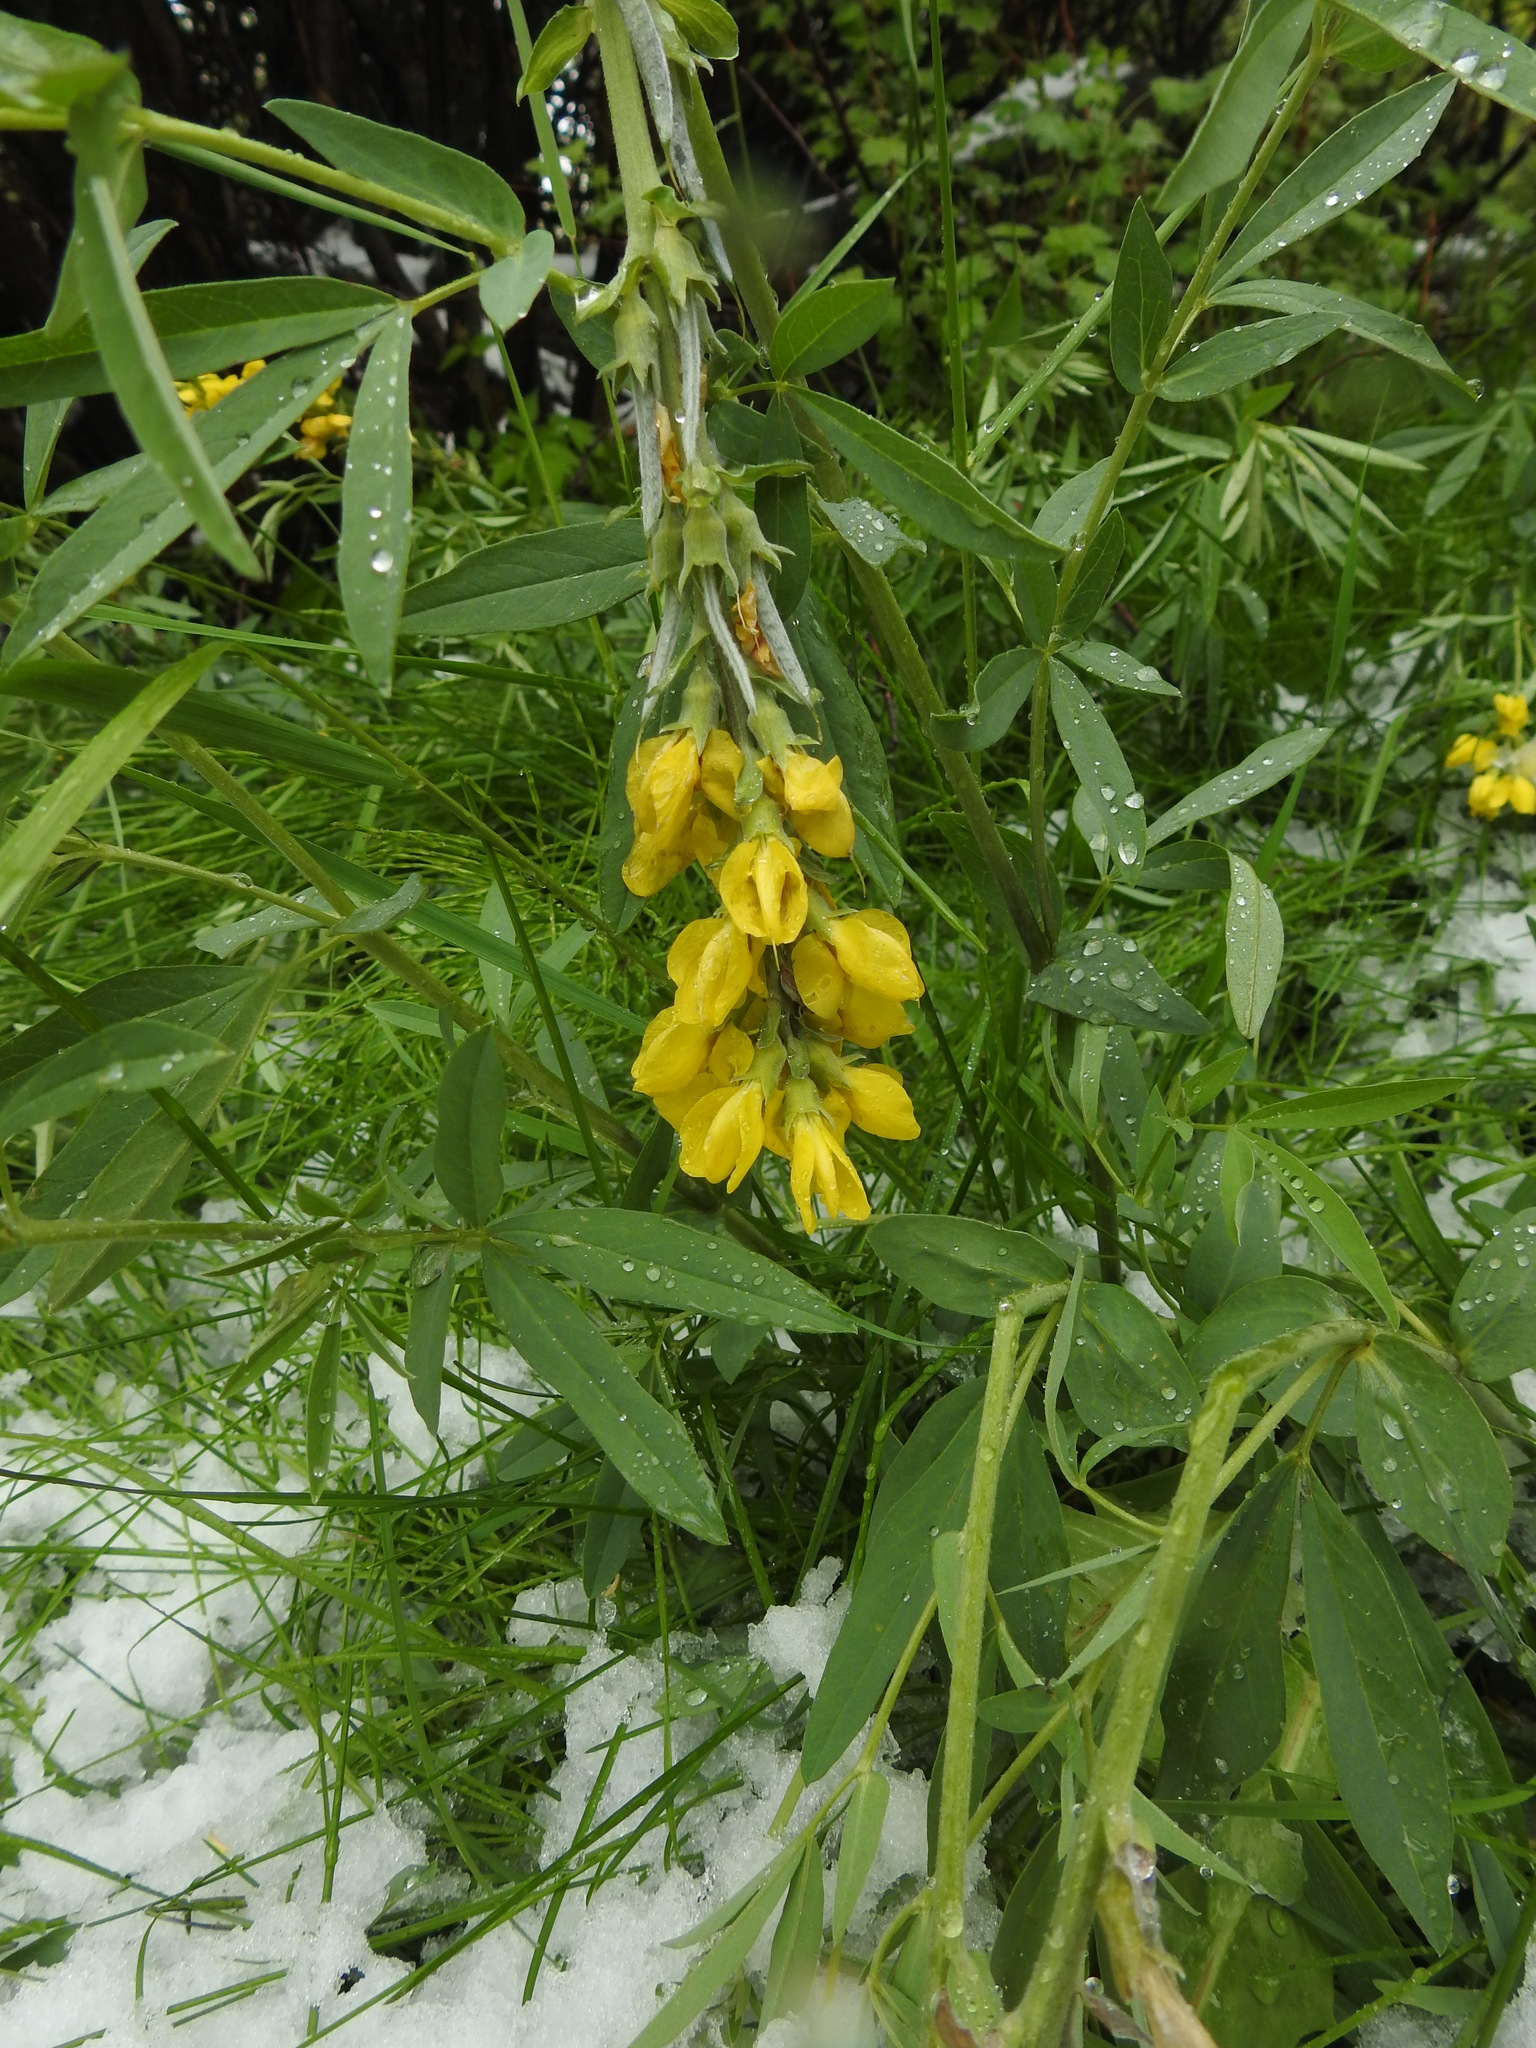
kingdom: Plantae
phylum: Tracheophyta
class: Magnoliopsida
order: Fabales
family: Fabaceae
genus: Thermopsis
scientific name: Thermopsis montana
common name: False lupin
